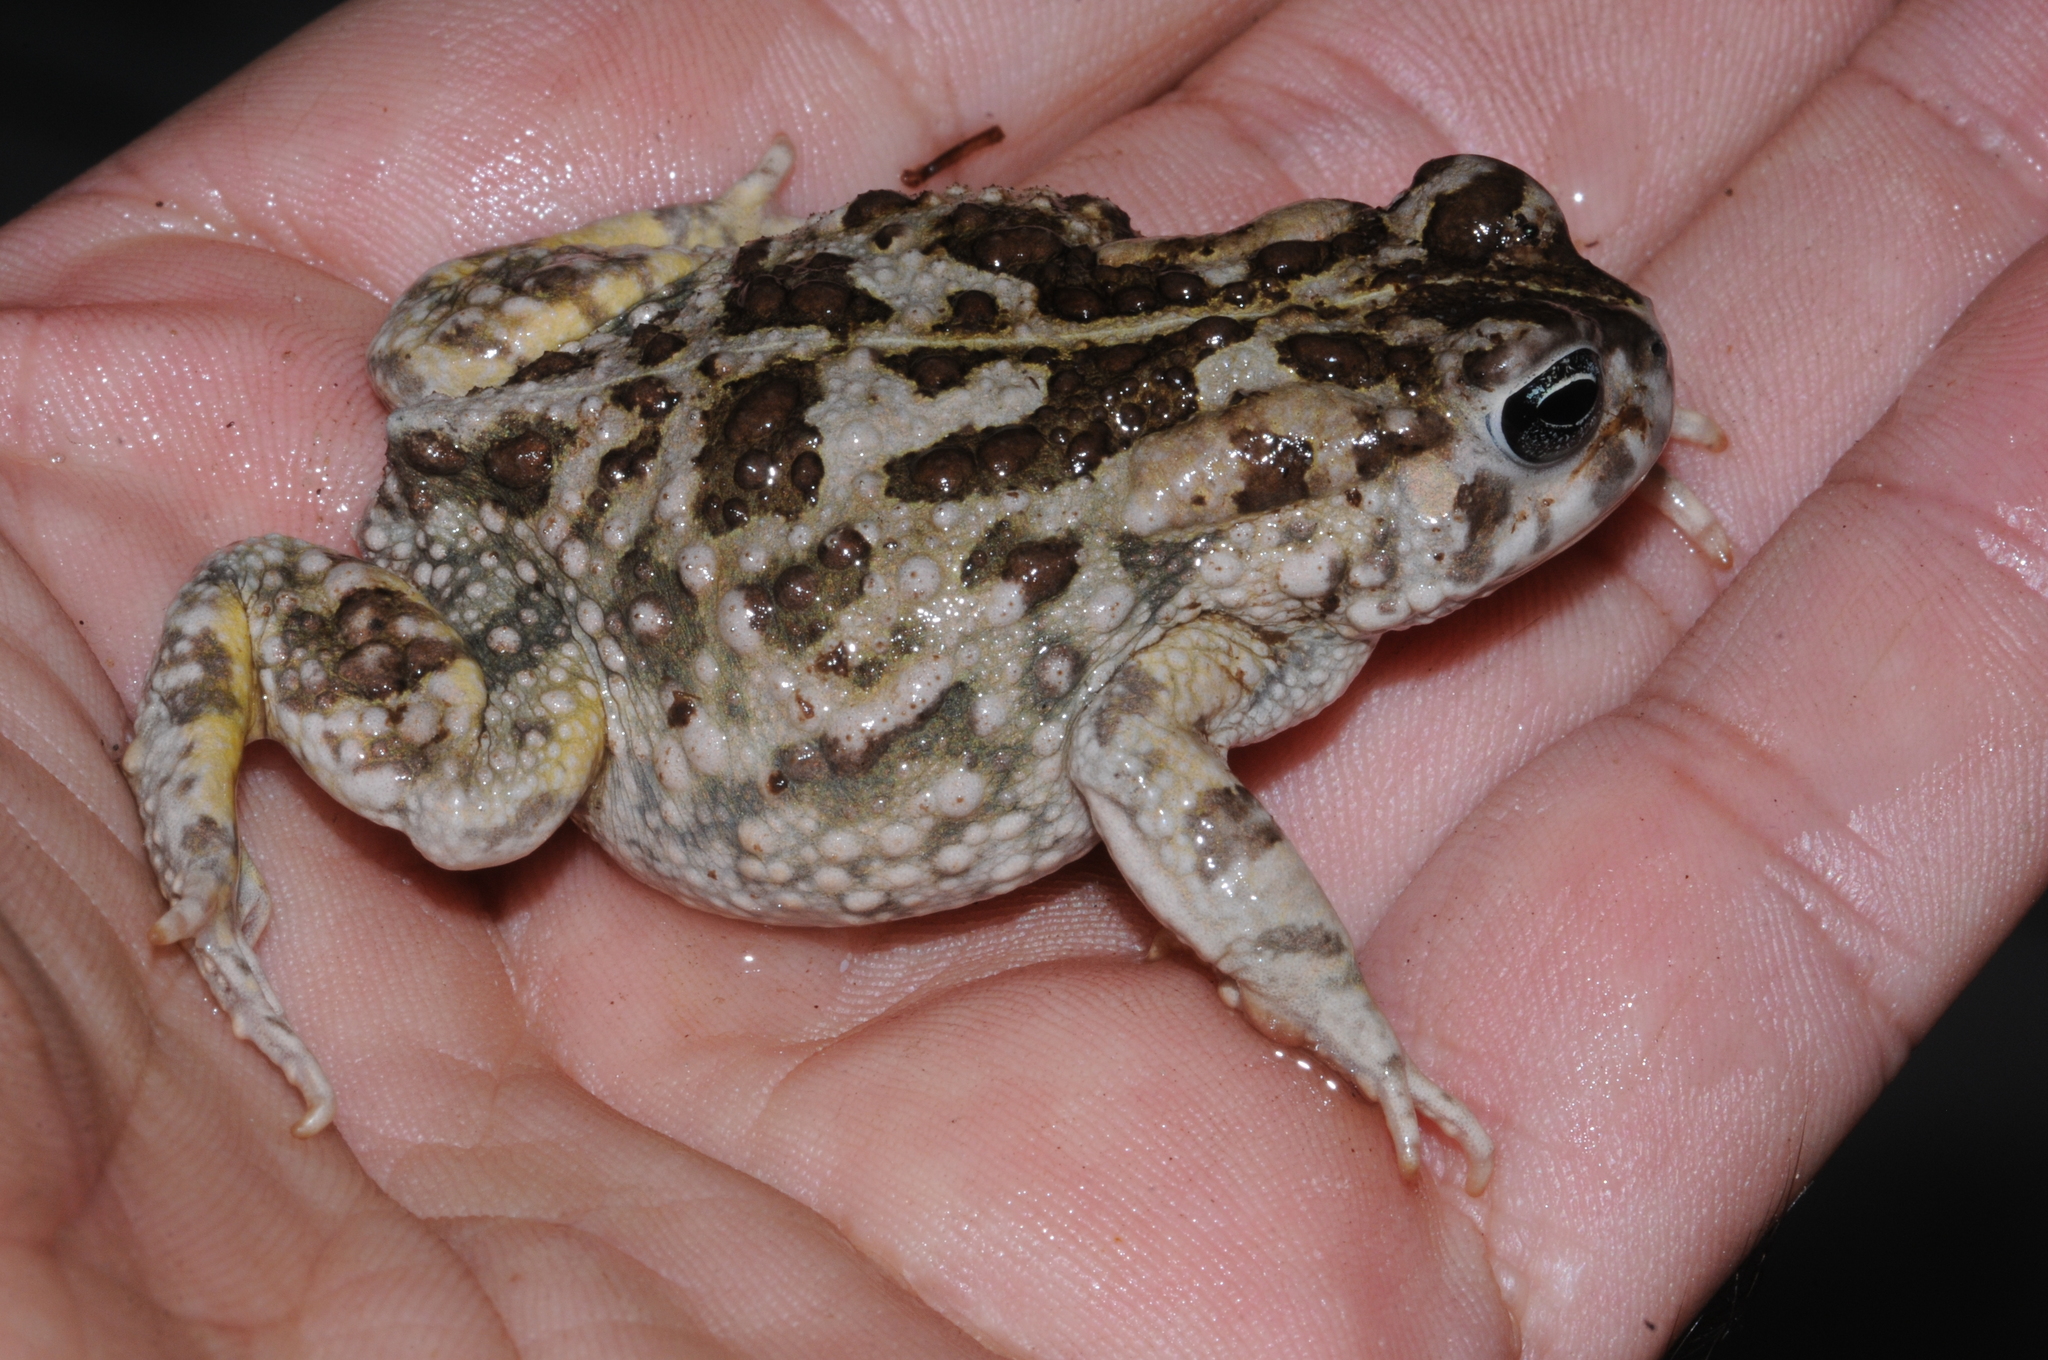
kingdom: Animalia
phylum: Chordata
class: Amphibia
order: Anura
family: Bufonidae
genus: Vandijkophrynus
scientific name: Vandijkophrynus angusticeps
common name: Sand toad
